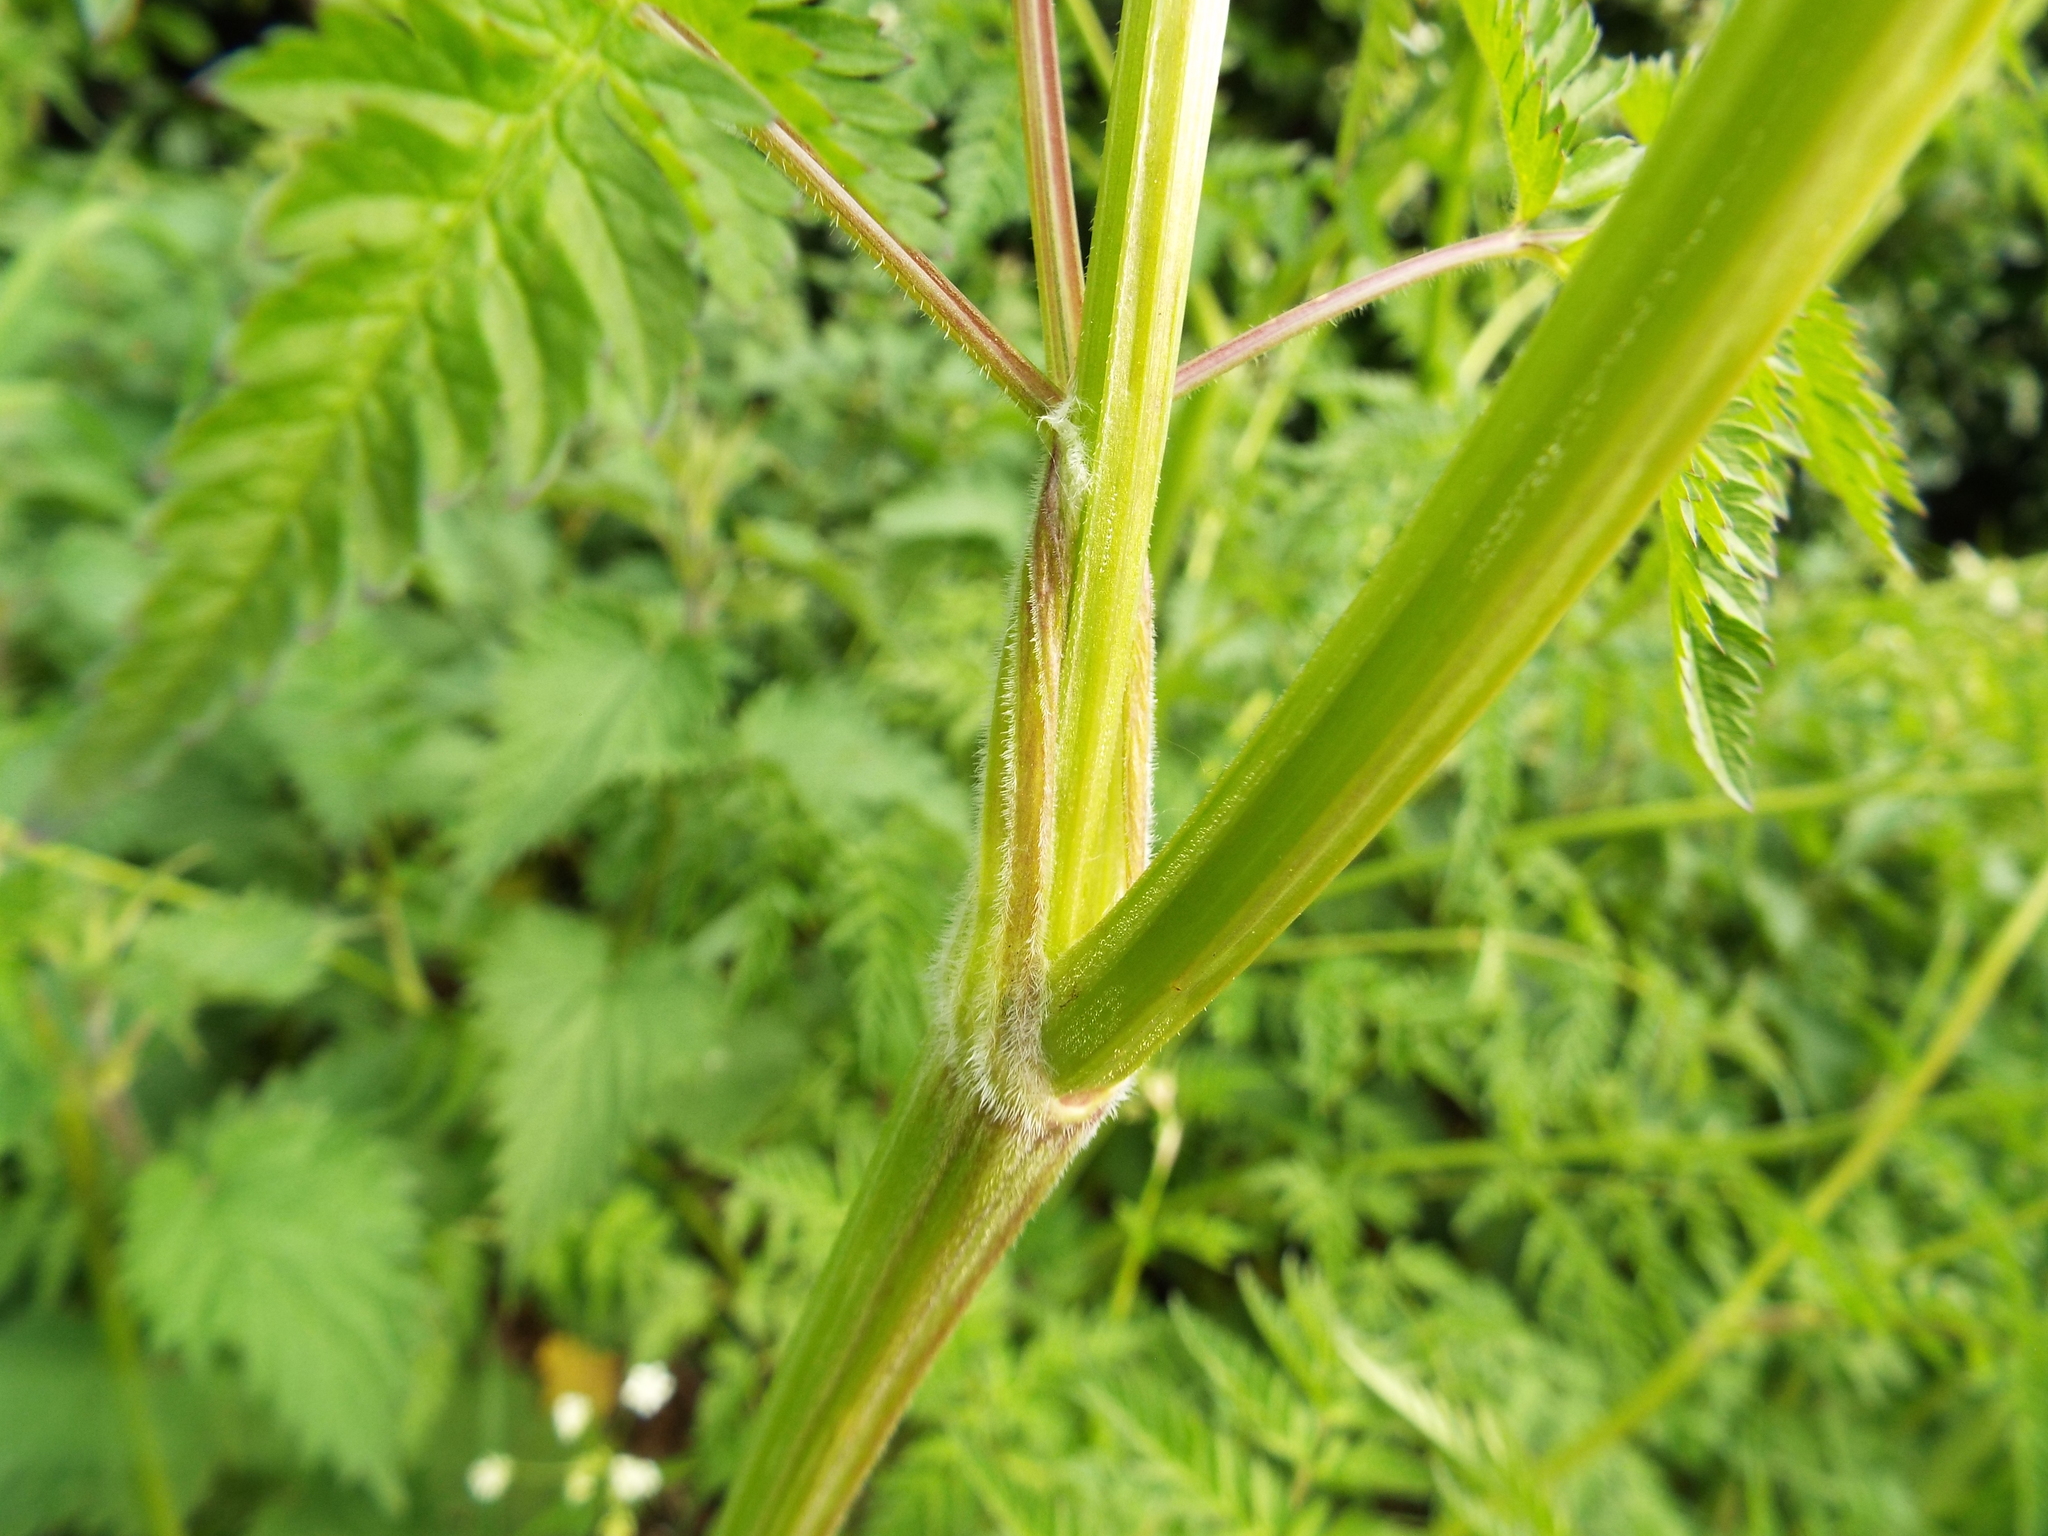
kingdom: Plantae
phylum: Tracheophyta
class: Magnoliopsida
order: Apiales
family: Apiaceae
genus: Anthriscus
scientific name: Anthriscus sylvestris
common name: Cow parsley
